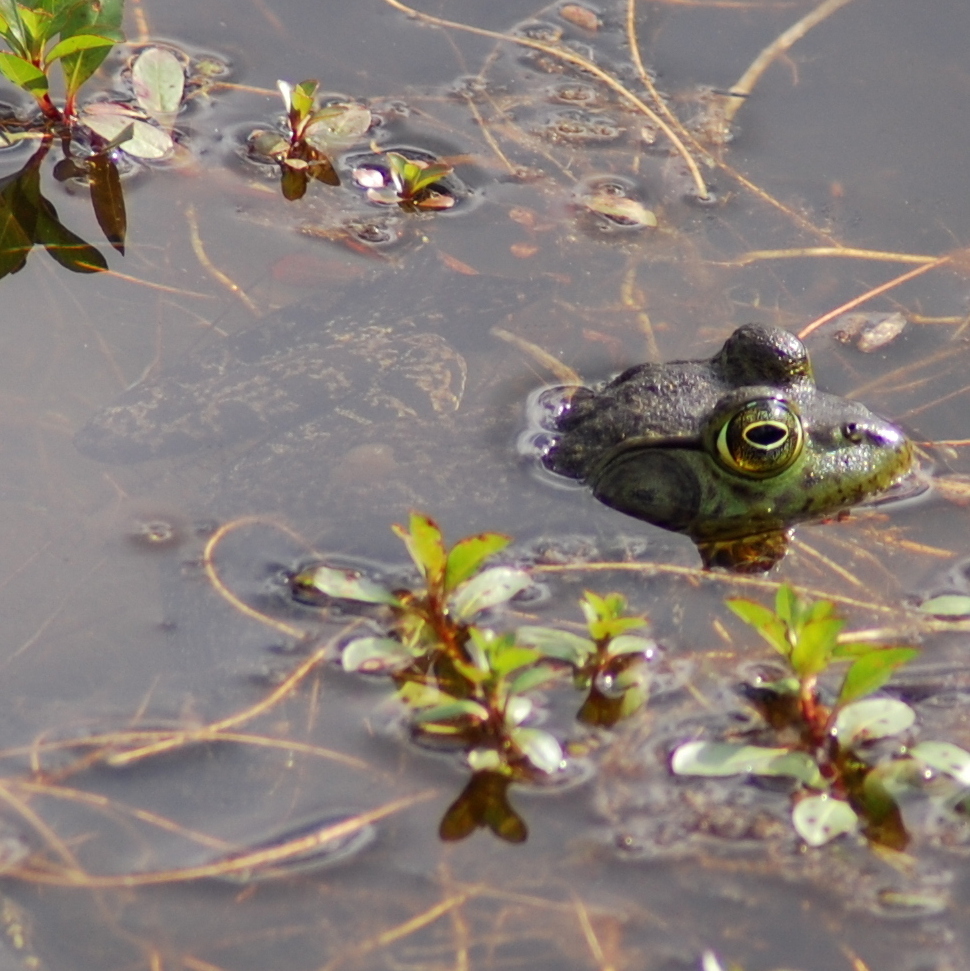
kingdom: Animalia
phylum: Chordata
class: Amphibia
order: Anura
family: Ranidae
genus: Lithobates
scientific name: Lithobates catesbeianus
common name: American bullfrog
